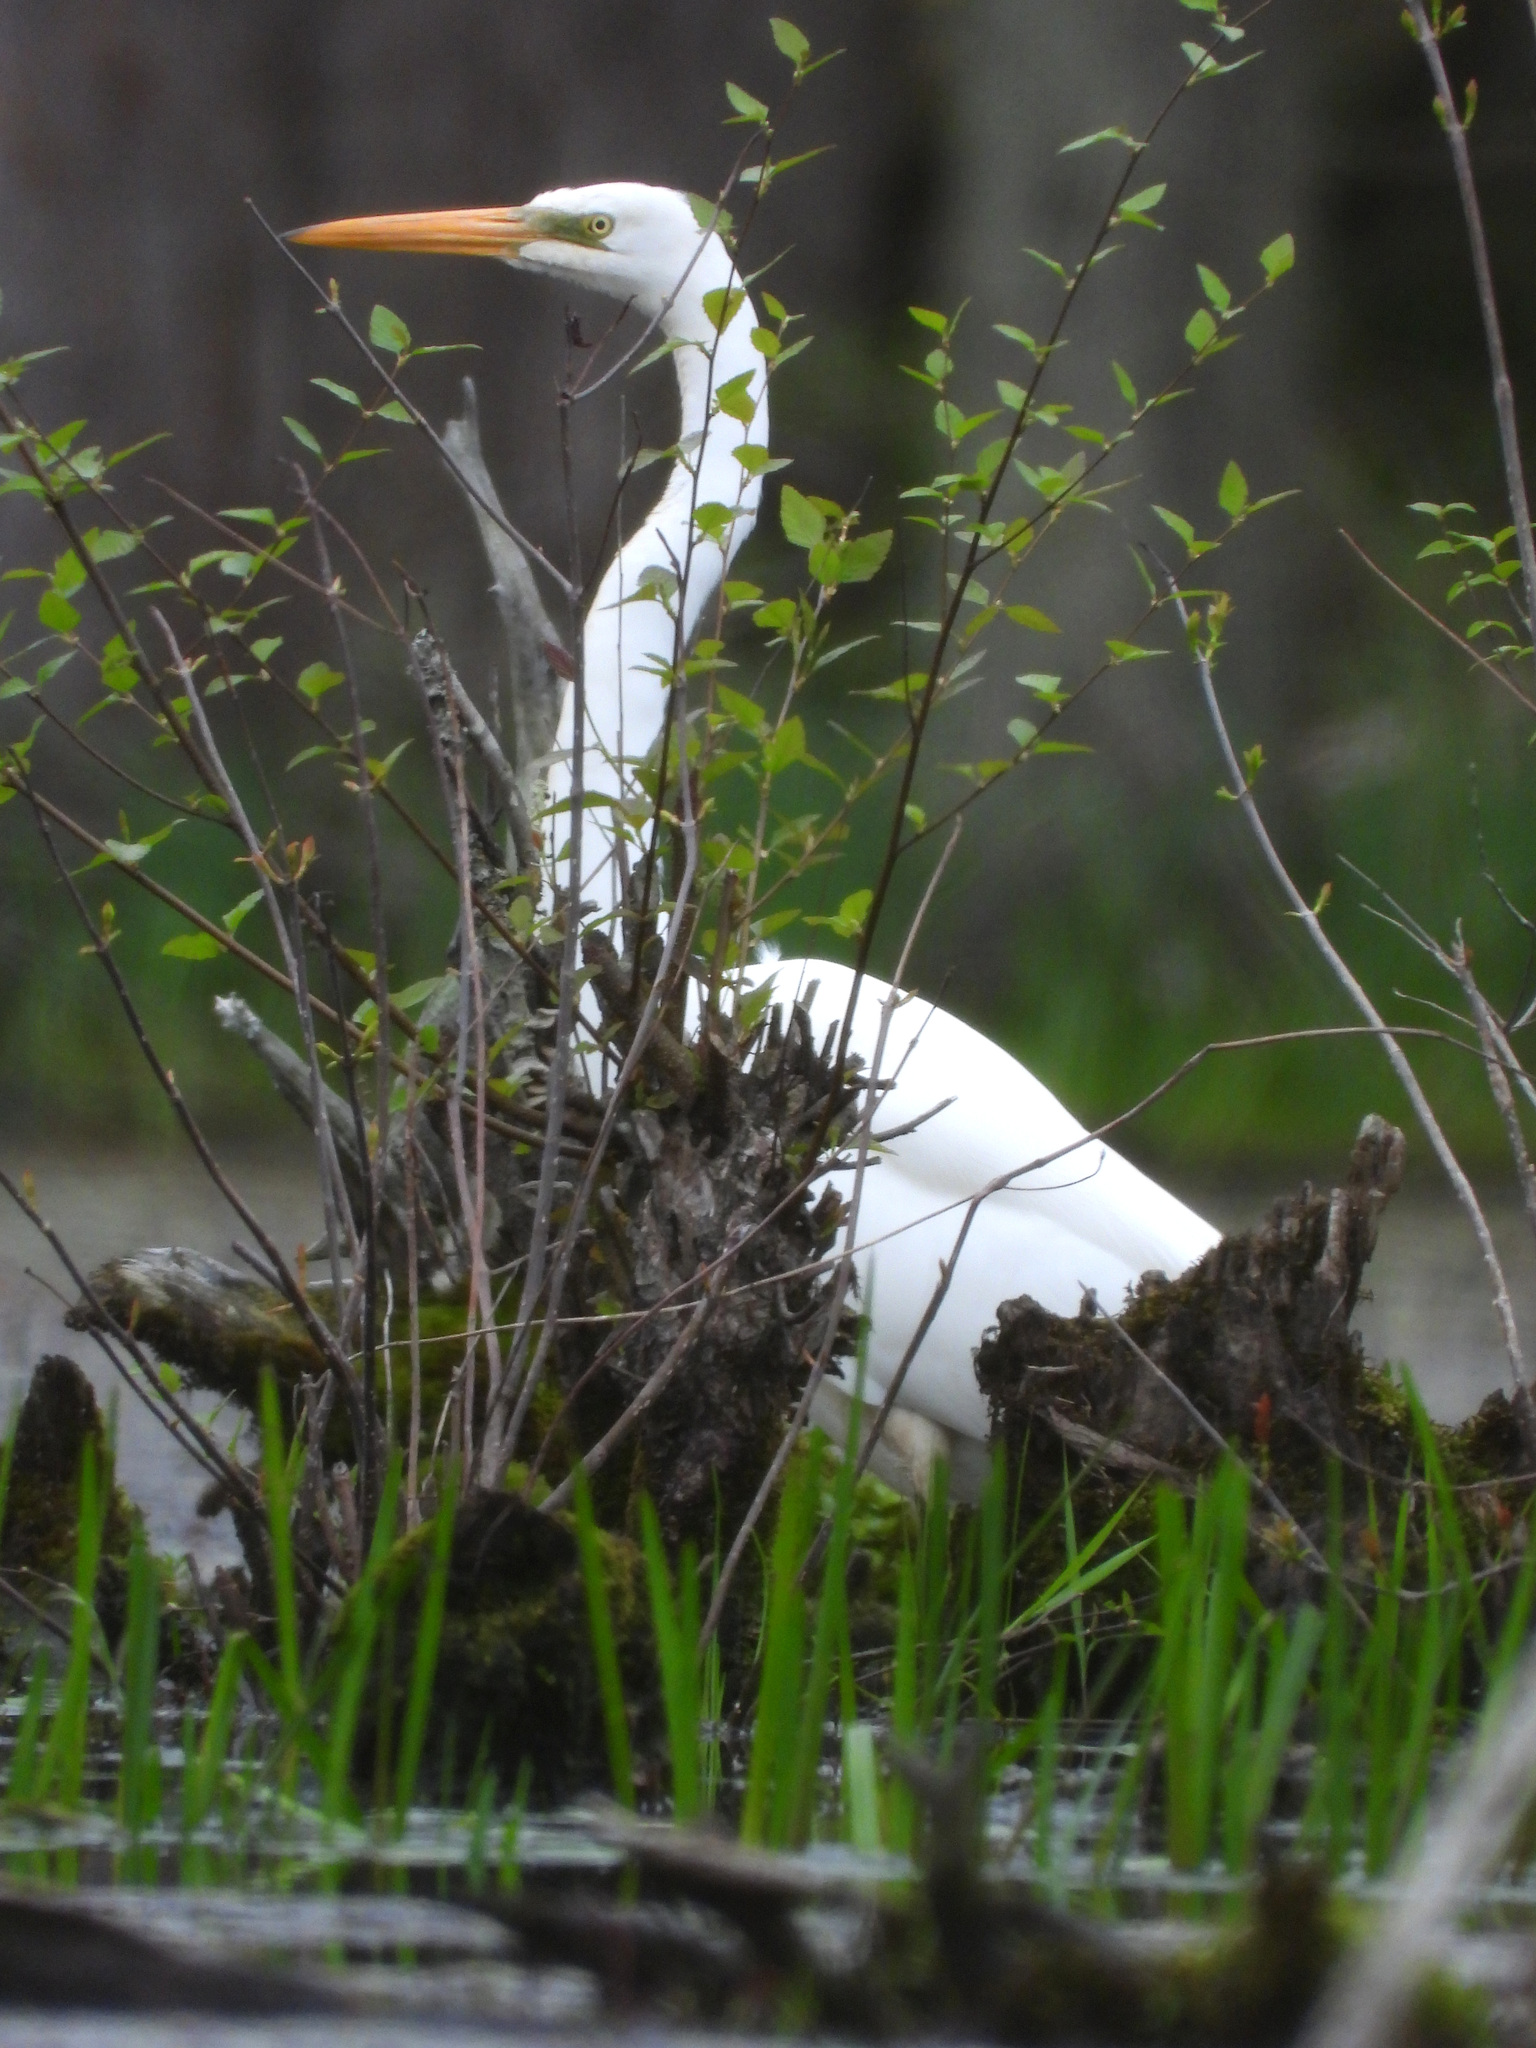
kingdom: Animalia
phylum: Chordata
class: Aves
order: Pelecaniformes
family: Ardeidae
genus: Ardea
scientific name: Ardea alba
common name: Great egret
